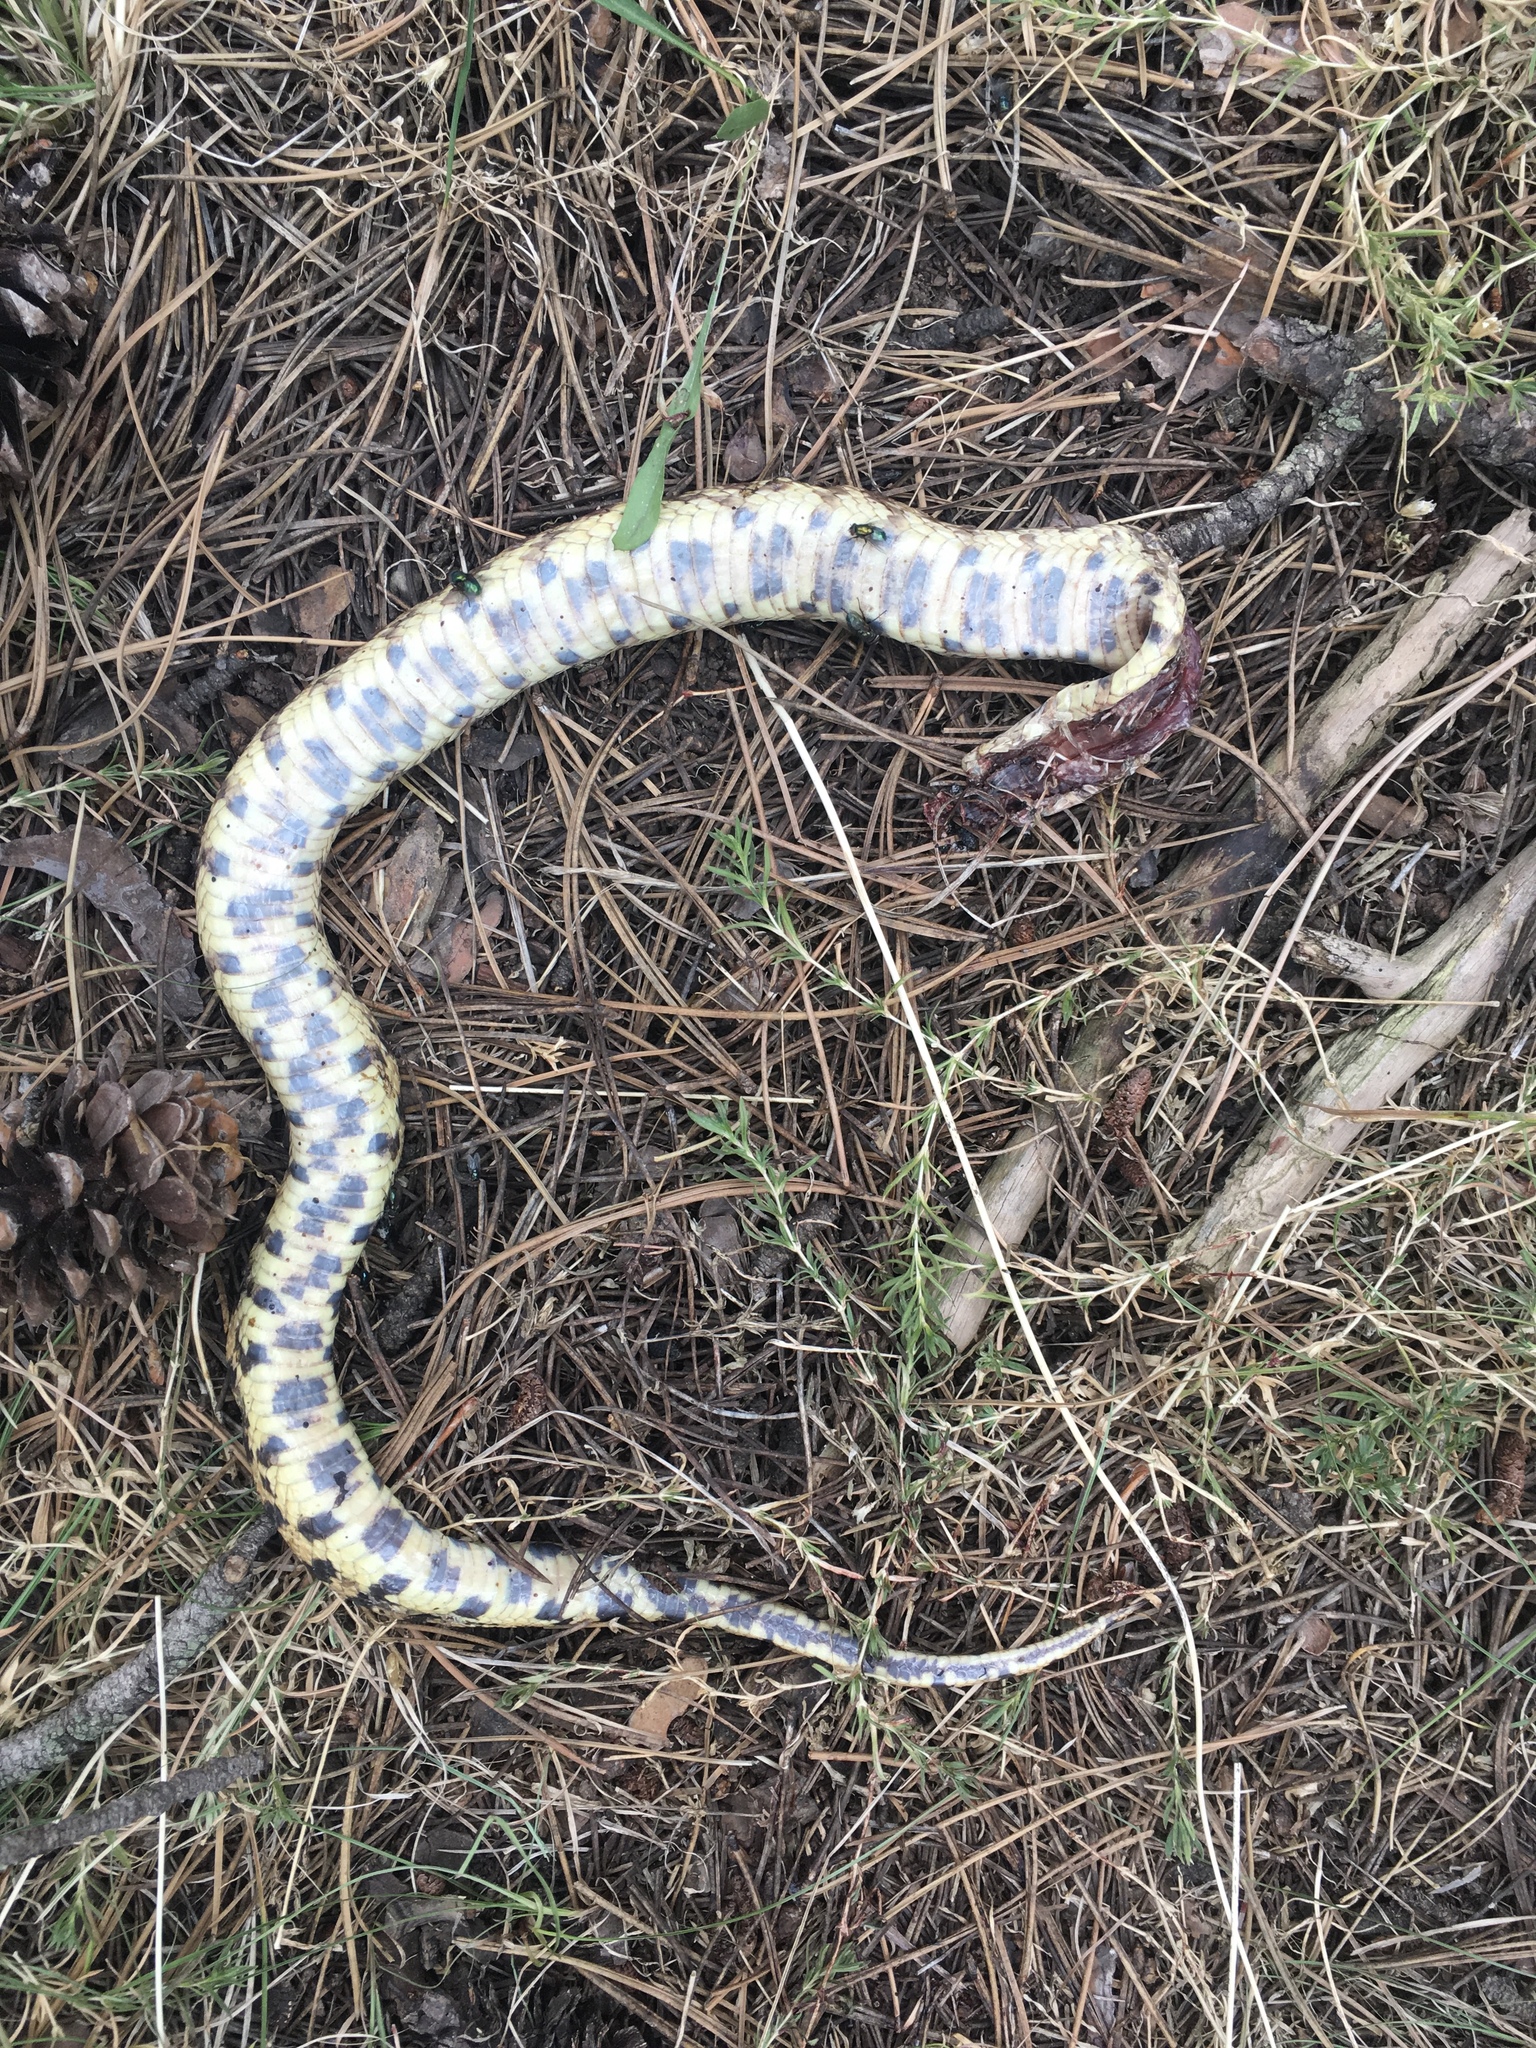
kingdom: Animalia
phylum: Chordata
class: Squamata
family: Colubridae
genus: Pituophis
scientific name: Pituophis catenifer
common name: Gopher snake
